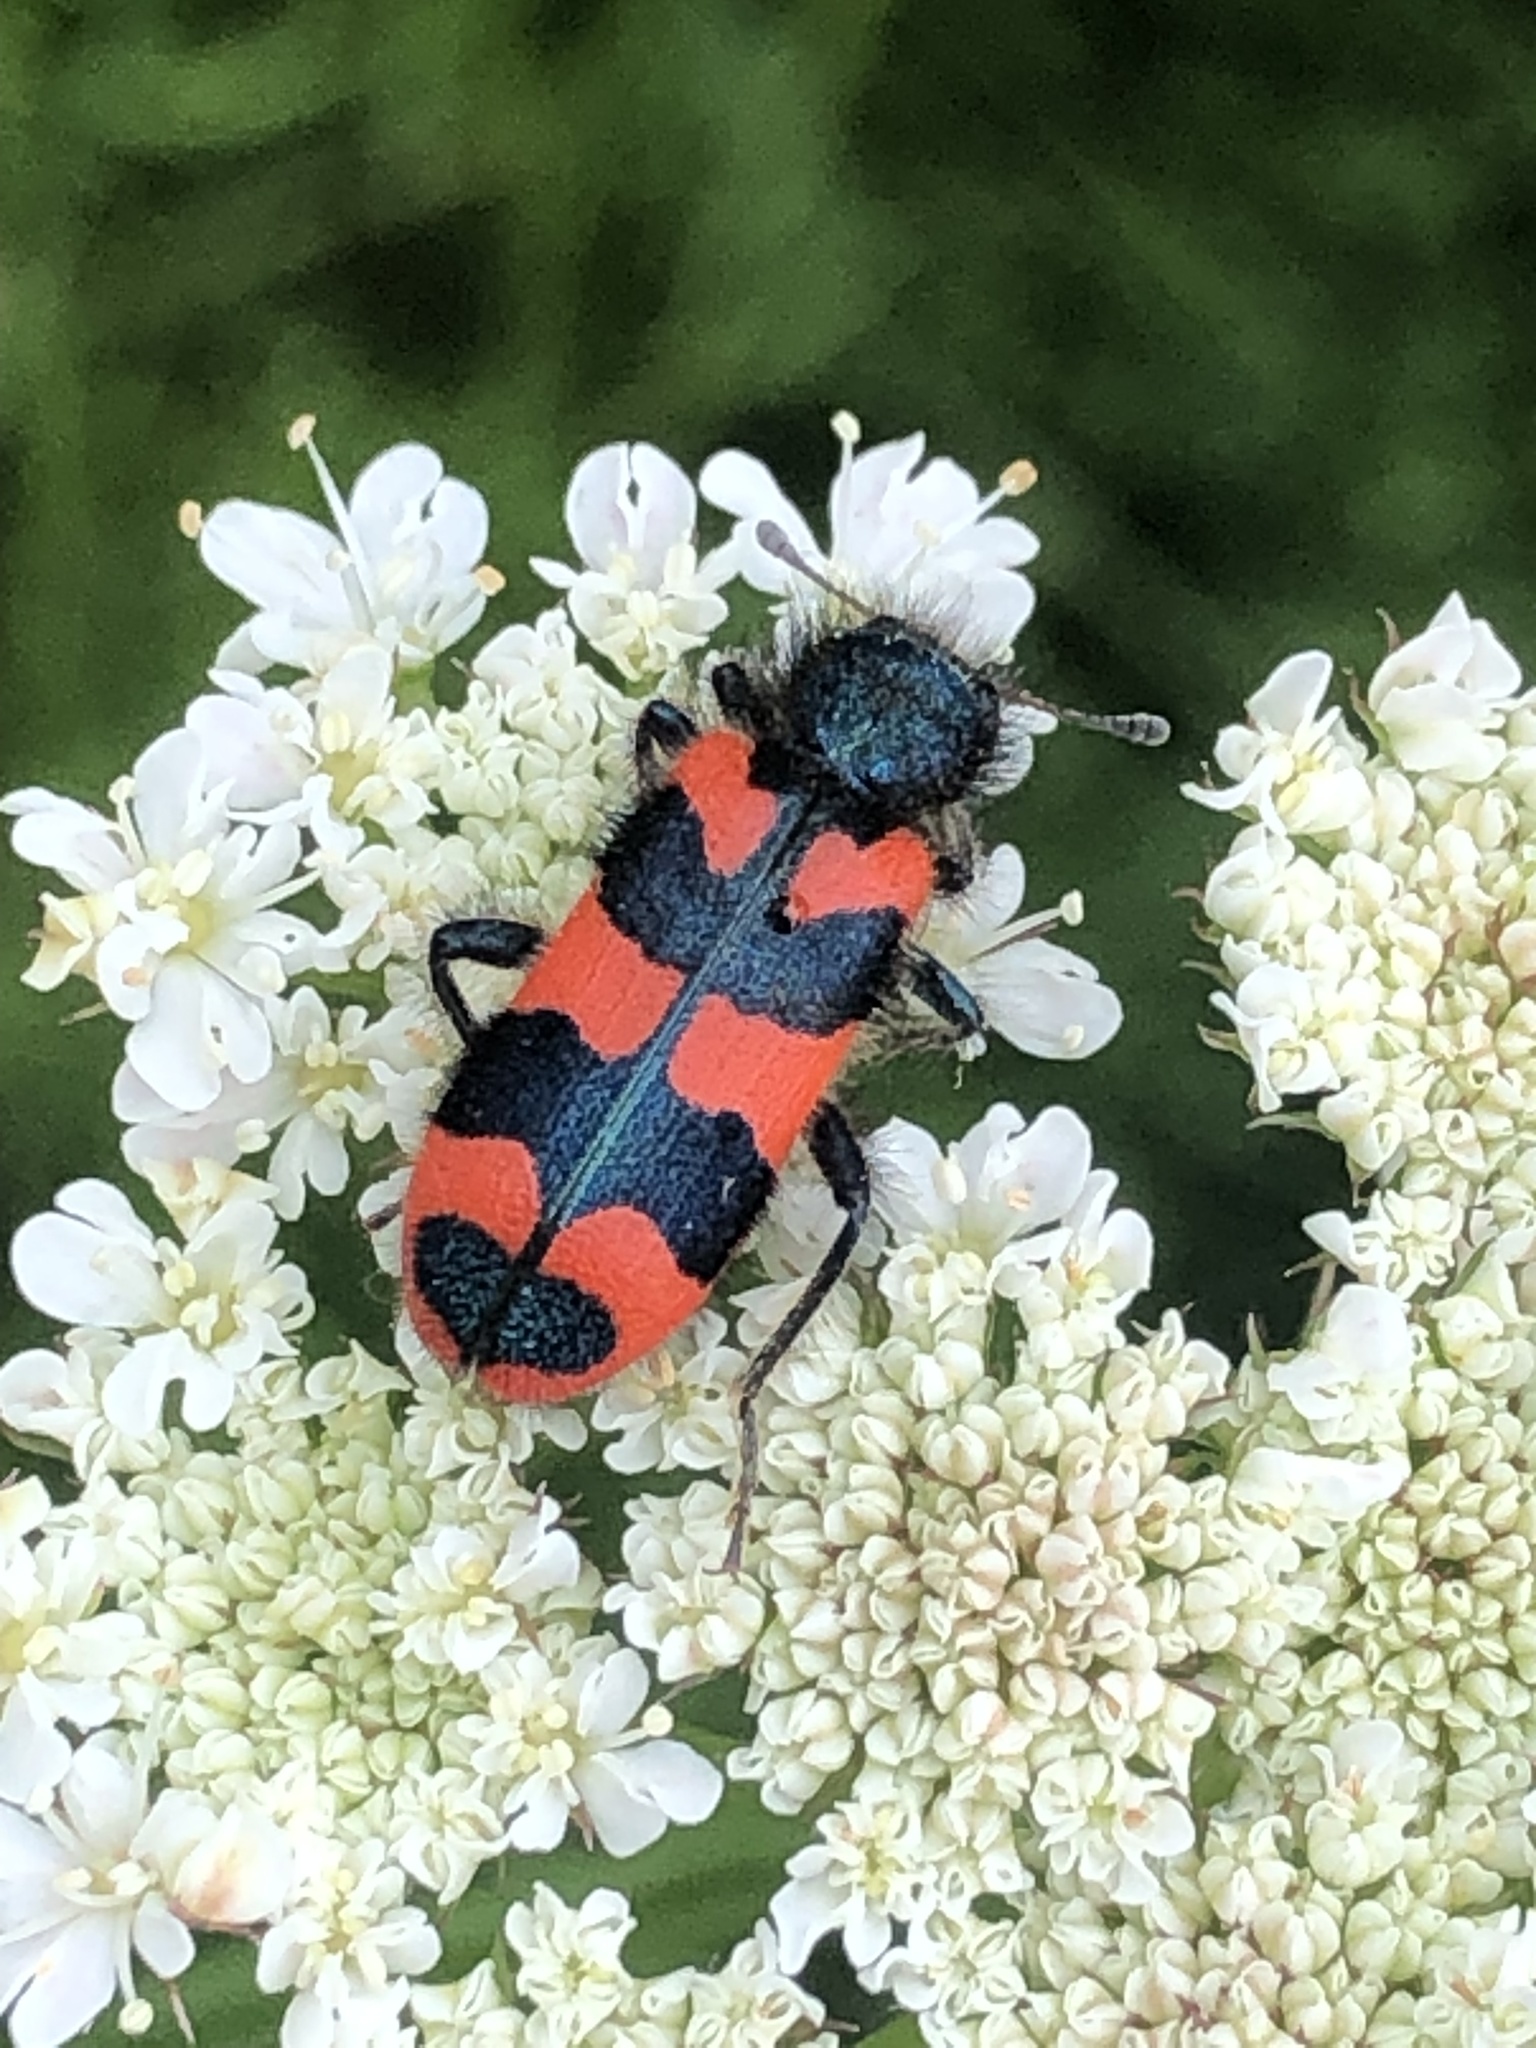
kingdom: Animalia
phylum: Arthropoda
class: Insecta
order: Coleoptera
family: Cleridae
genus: Trichodes
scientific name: Trichodes alvearius
